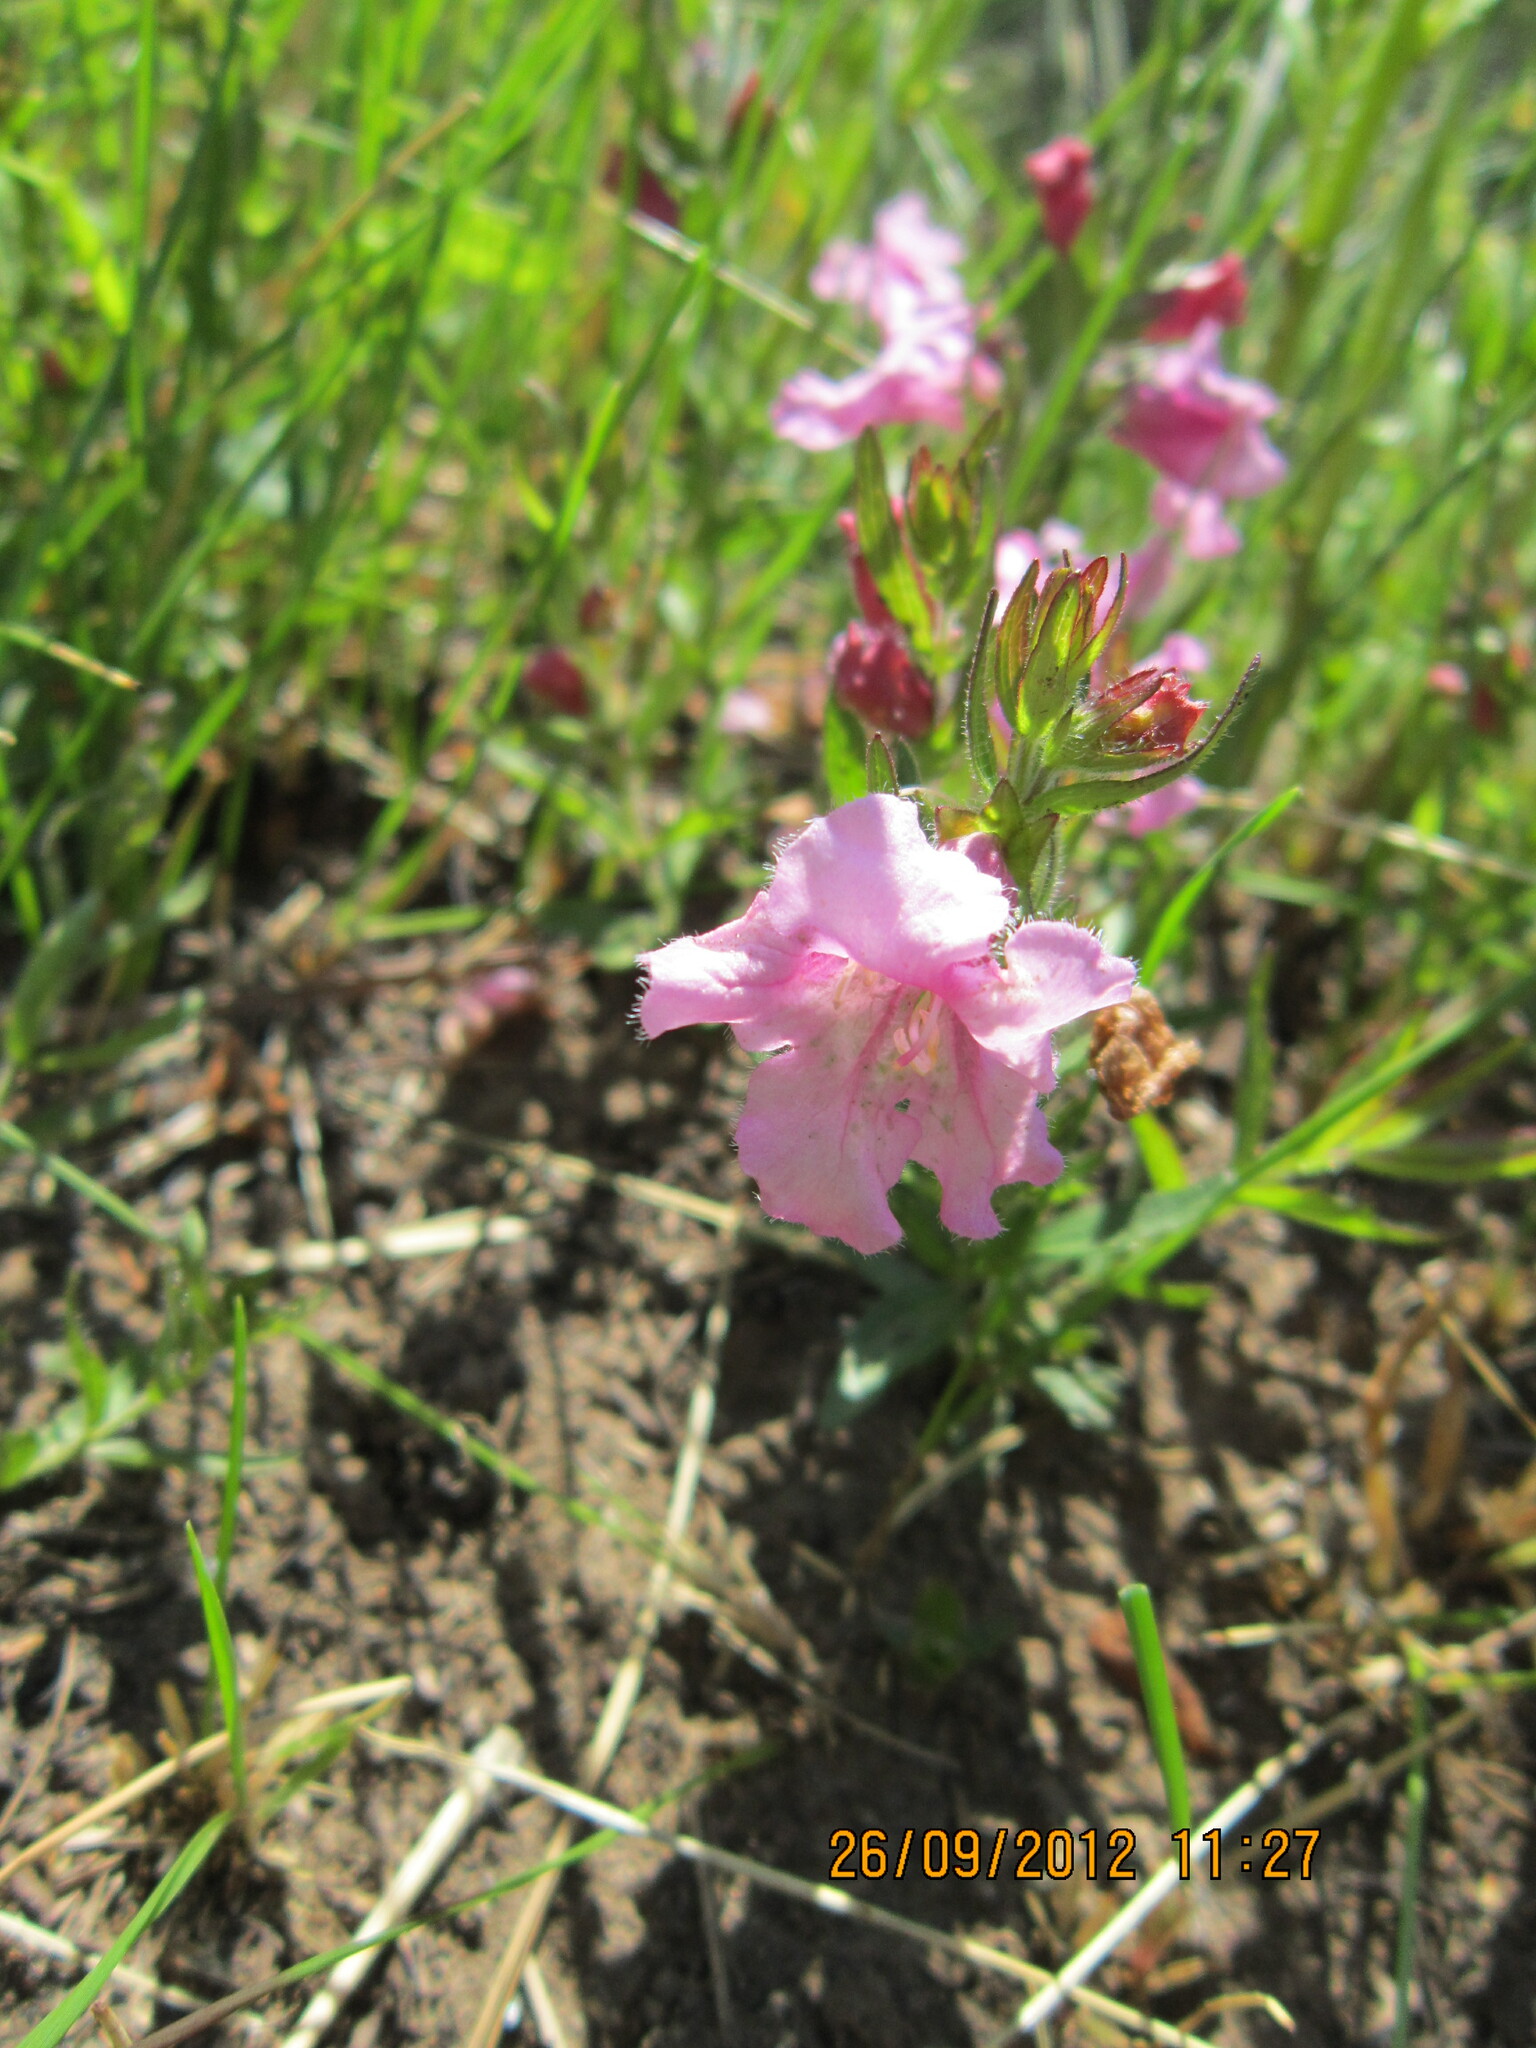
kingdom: Plantae
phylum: Tracheophyta
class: Magnoliopsida
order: Lamiales
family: Orobanchaceae
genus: Graderia
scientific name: Graderia scabra
